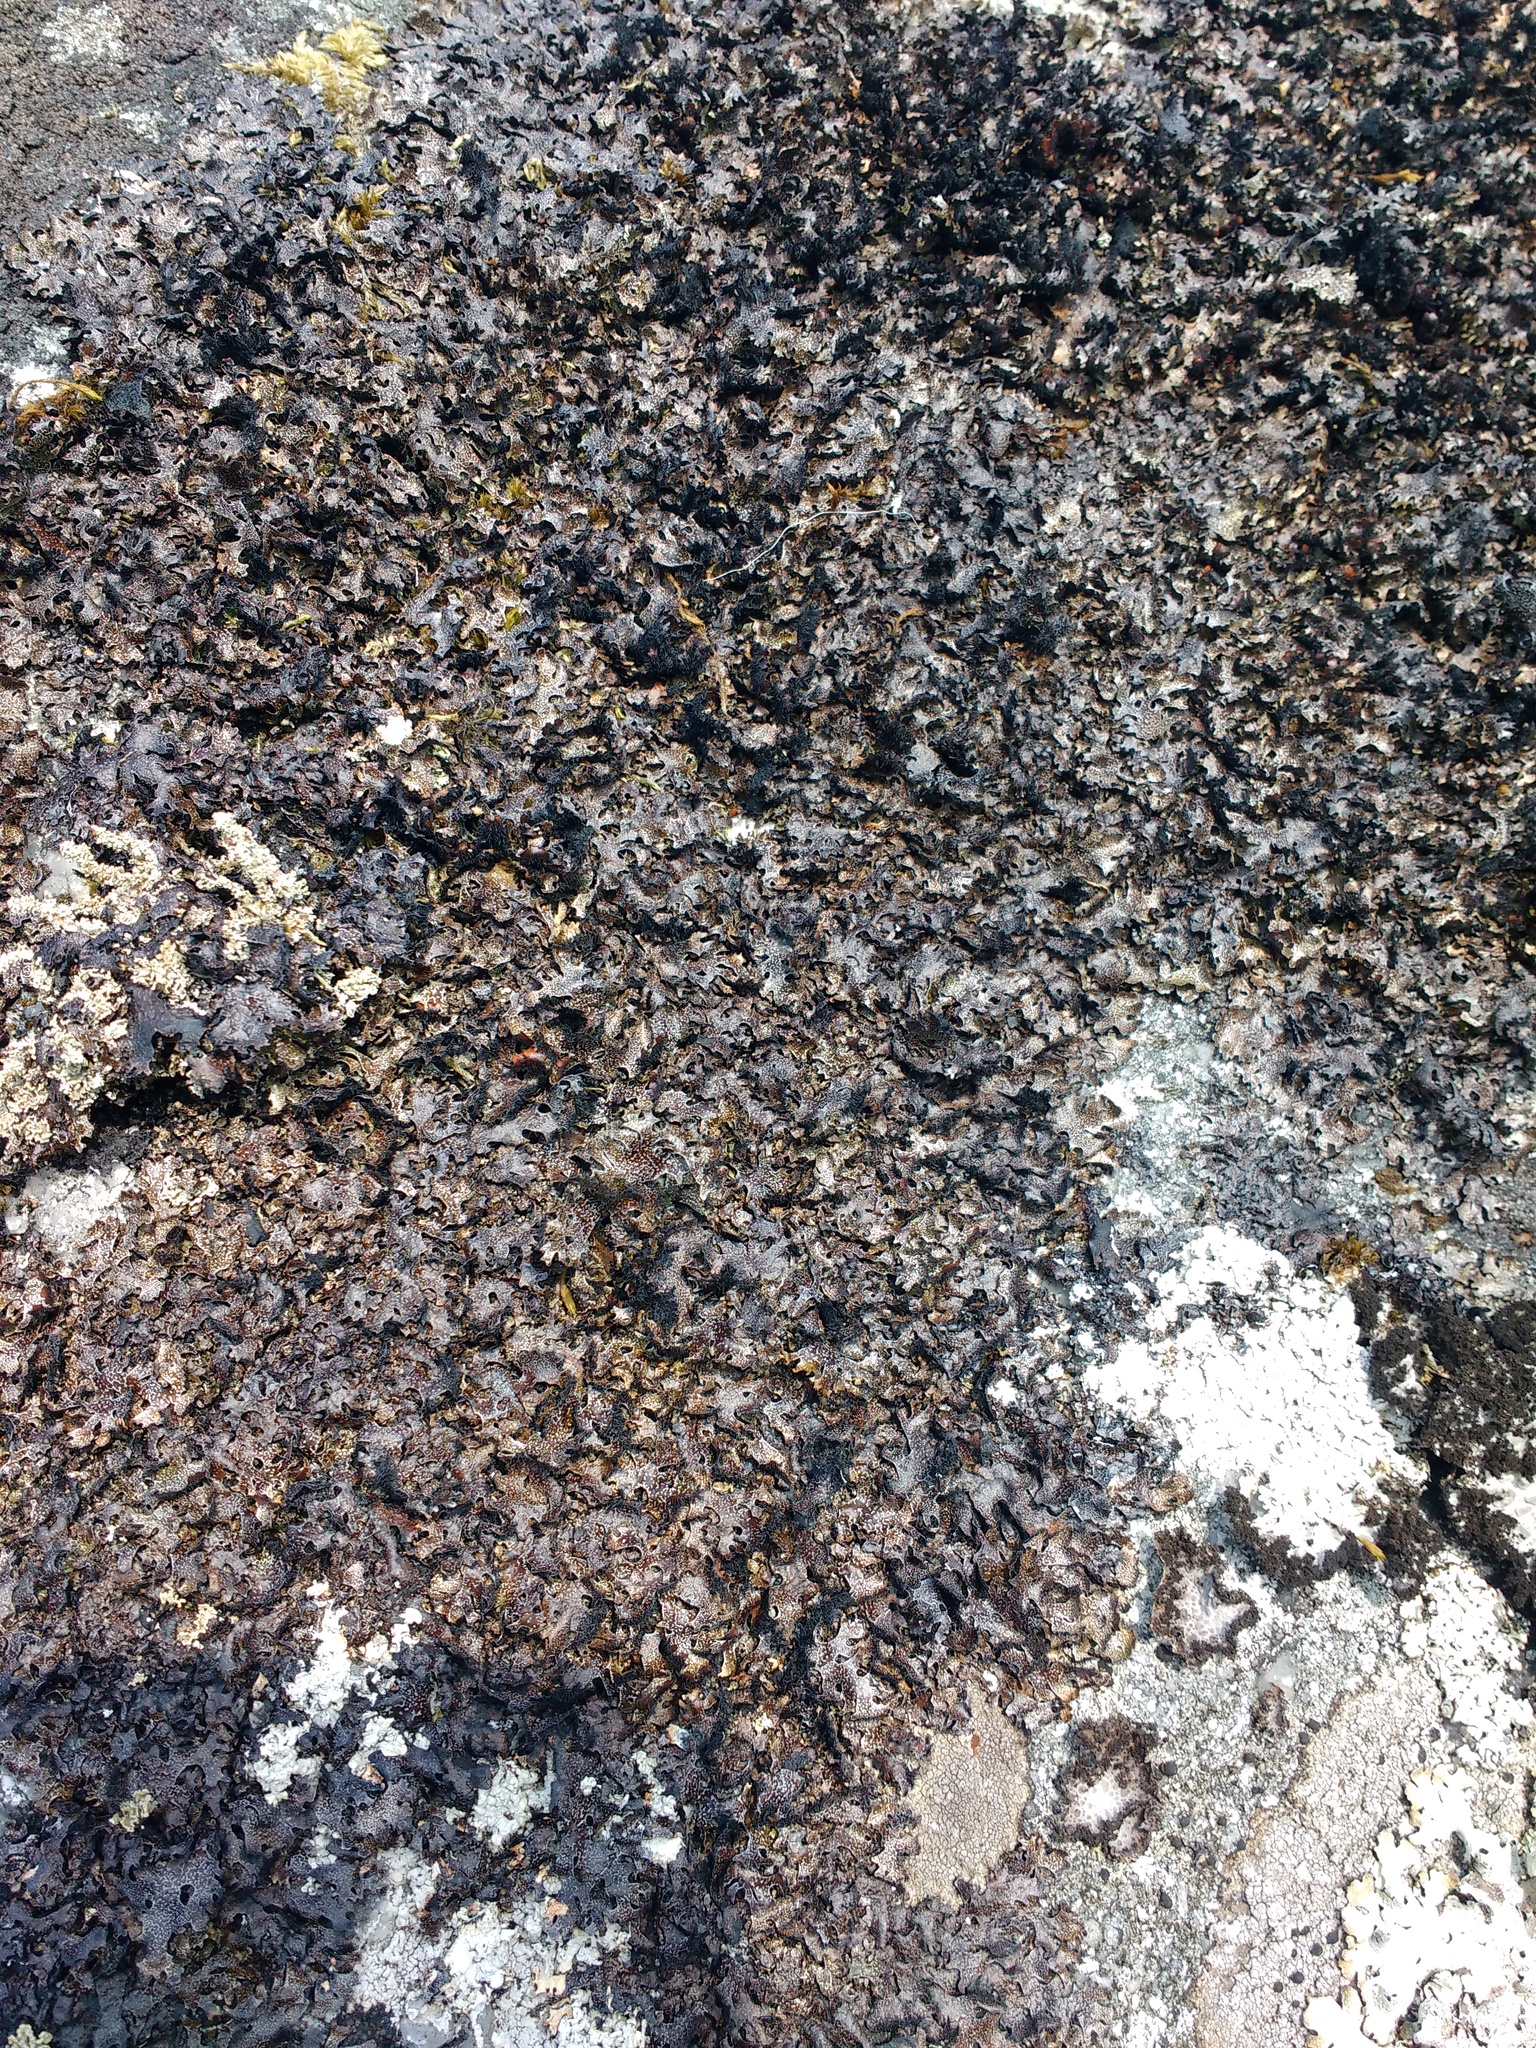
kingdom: Fungi
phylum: Ascomycota
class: Lecanoromycetes
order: Lecanorales
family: Parmeliaceae
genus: Parmelia
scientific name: Parmelia omphalodes
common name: Smoky crottle
